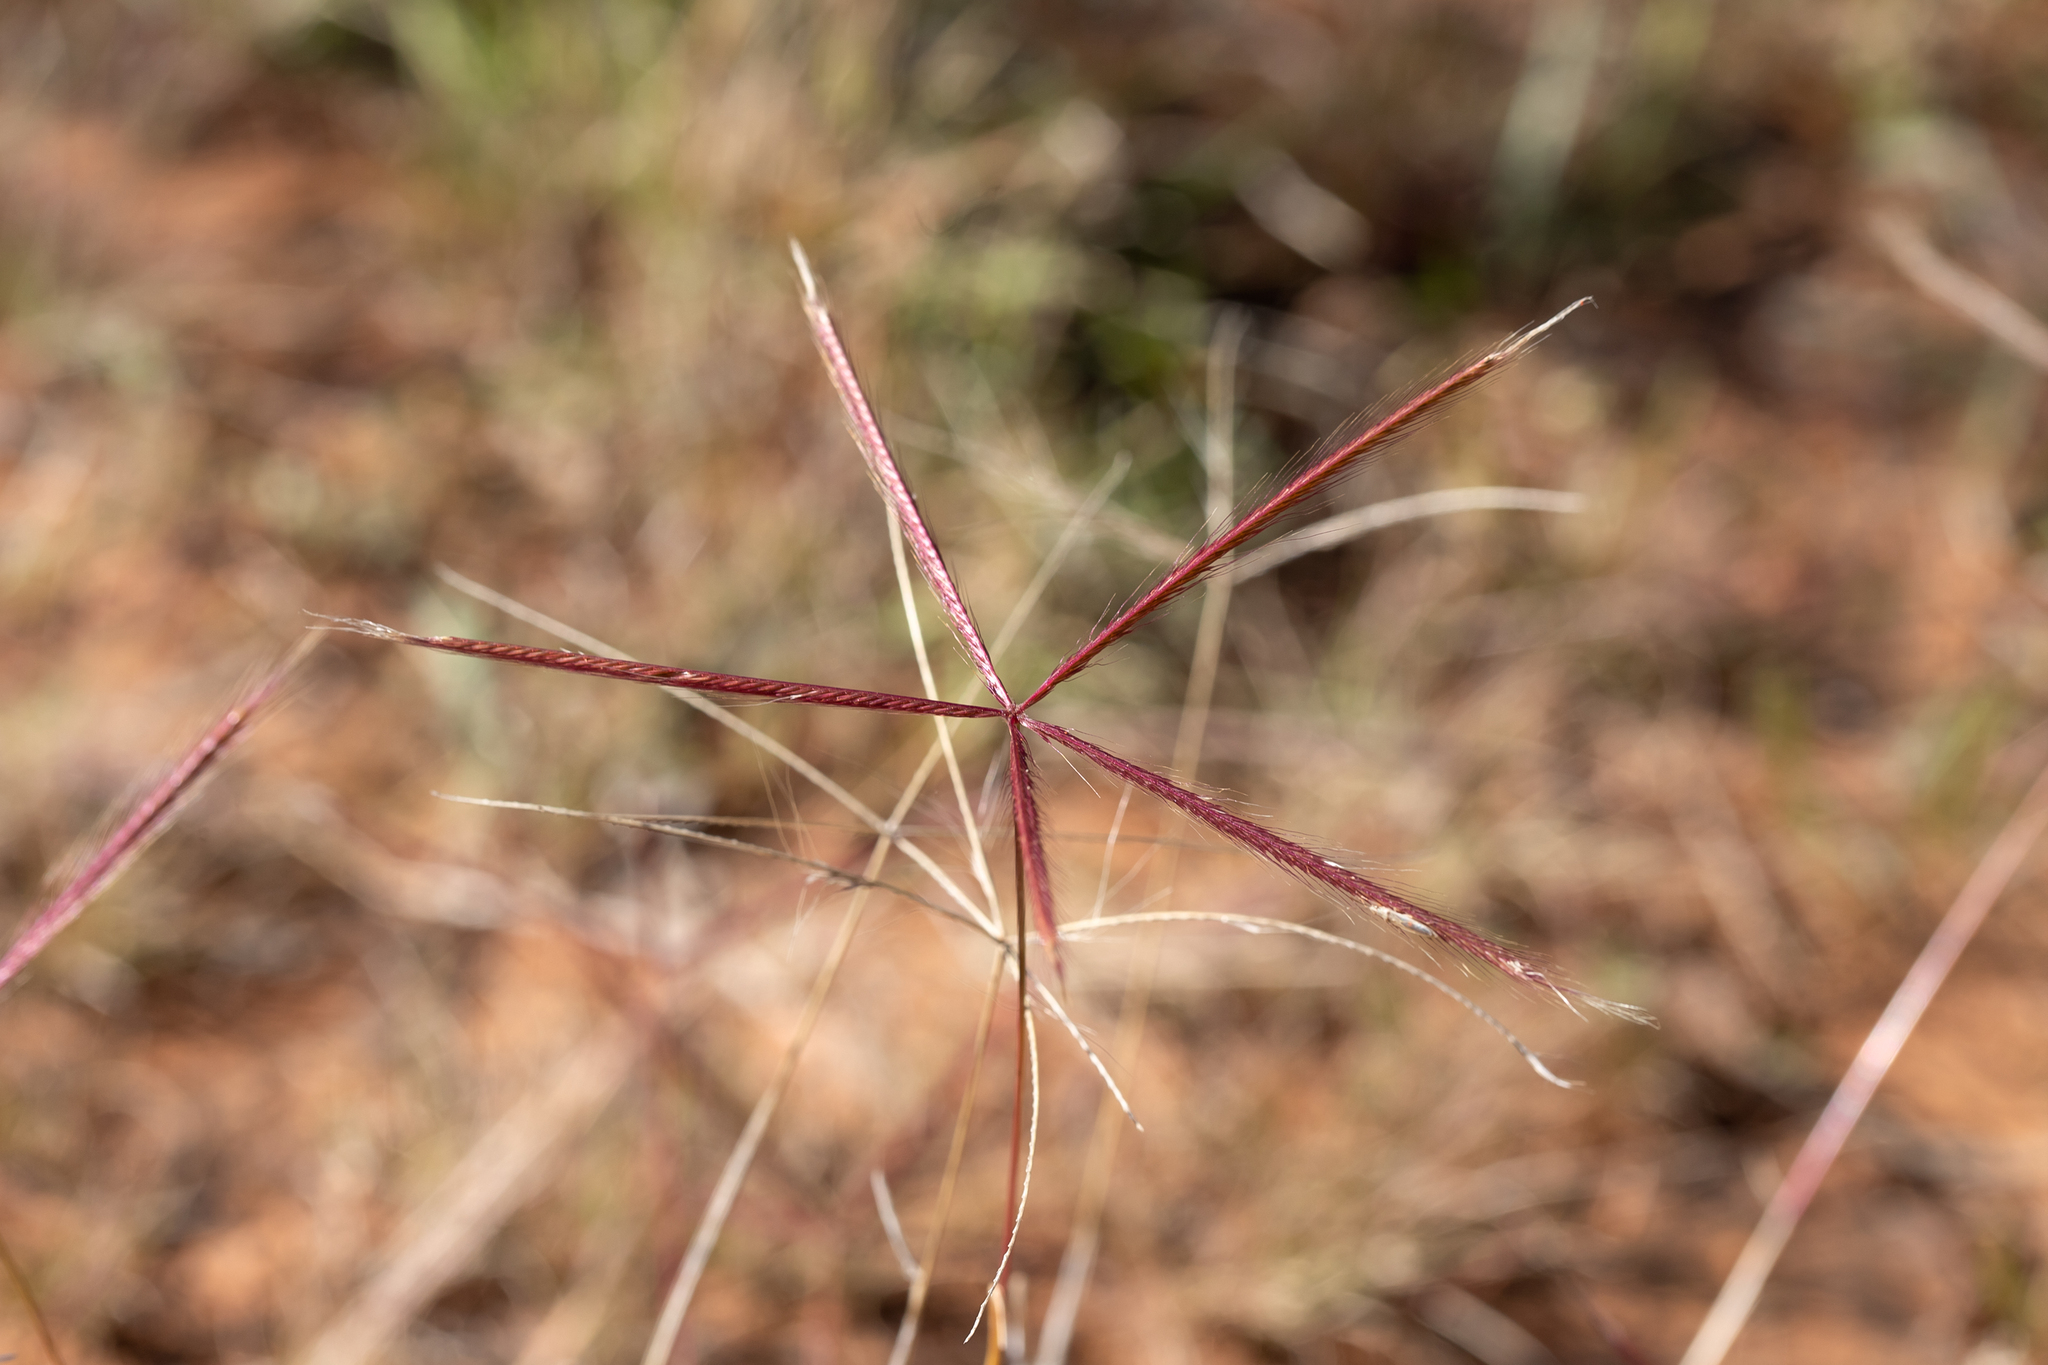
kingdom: Plantae
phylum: Tracheophyta
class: Liliopsida
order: Poales
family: Poaceae
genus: Chloris
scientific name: Chloris pectinata
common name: Comb windmill grass
